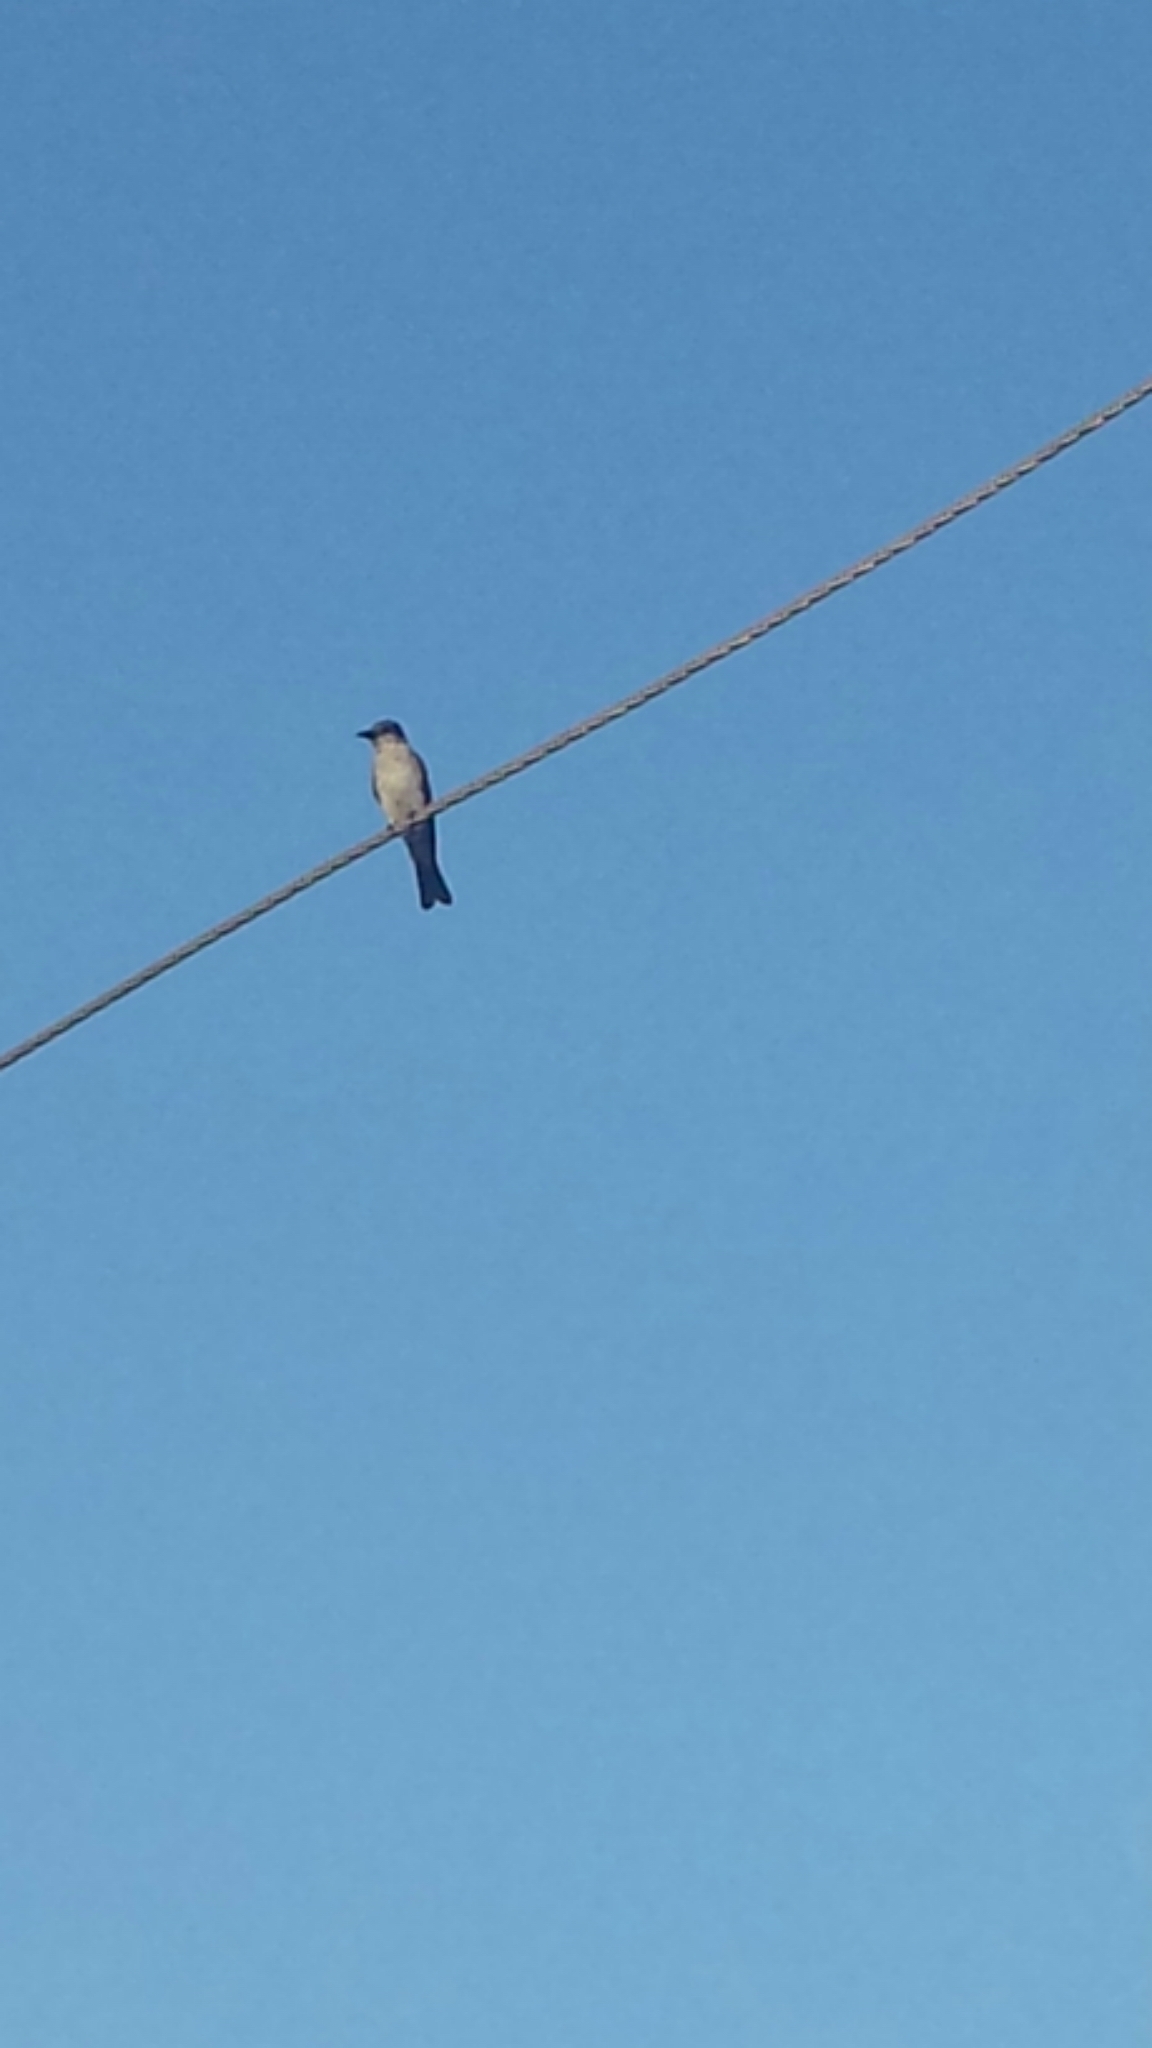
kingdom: Animalia
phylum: Chordata
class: Aves
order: Passeriformes
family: Tyrannidae
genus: Tyrannus
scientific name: Tyrannus dominicensis
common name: Gray kingbird
